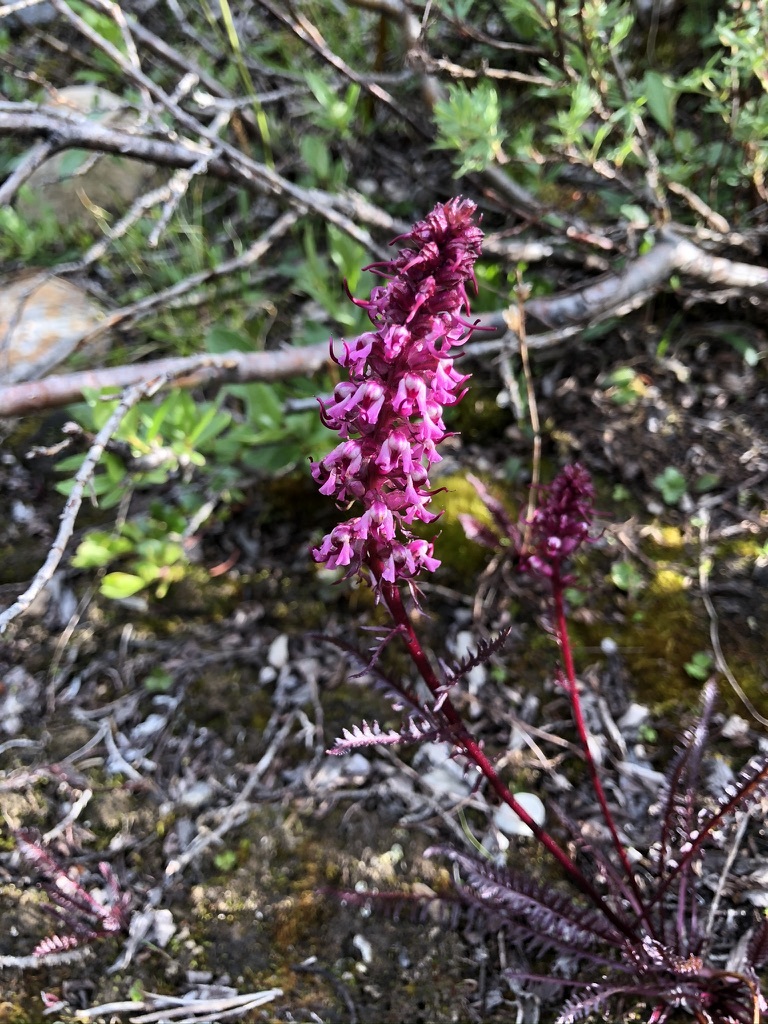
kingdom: Plantae
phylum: Tracheophyta
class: Magnoliopsida
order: Lamiales
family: Orobanchaceae
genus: Pedicularis
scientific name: Pedicularis groenlandica
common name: Elephant's-head
